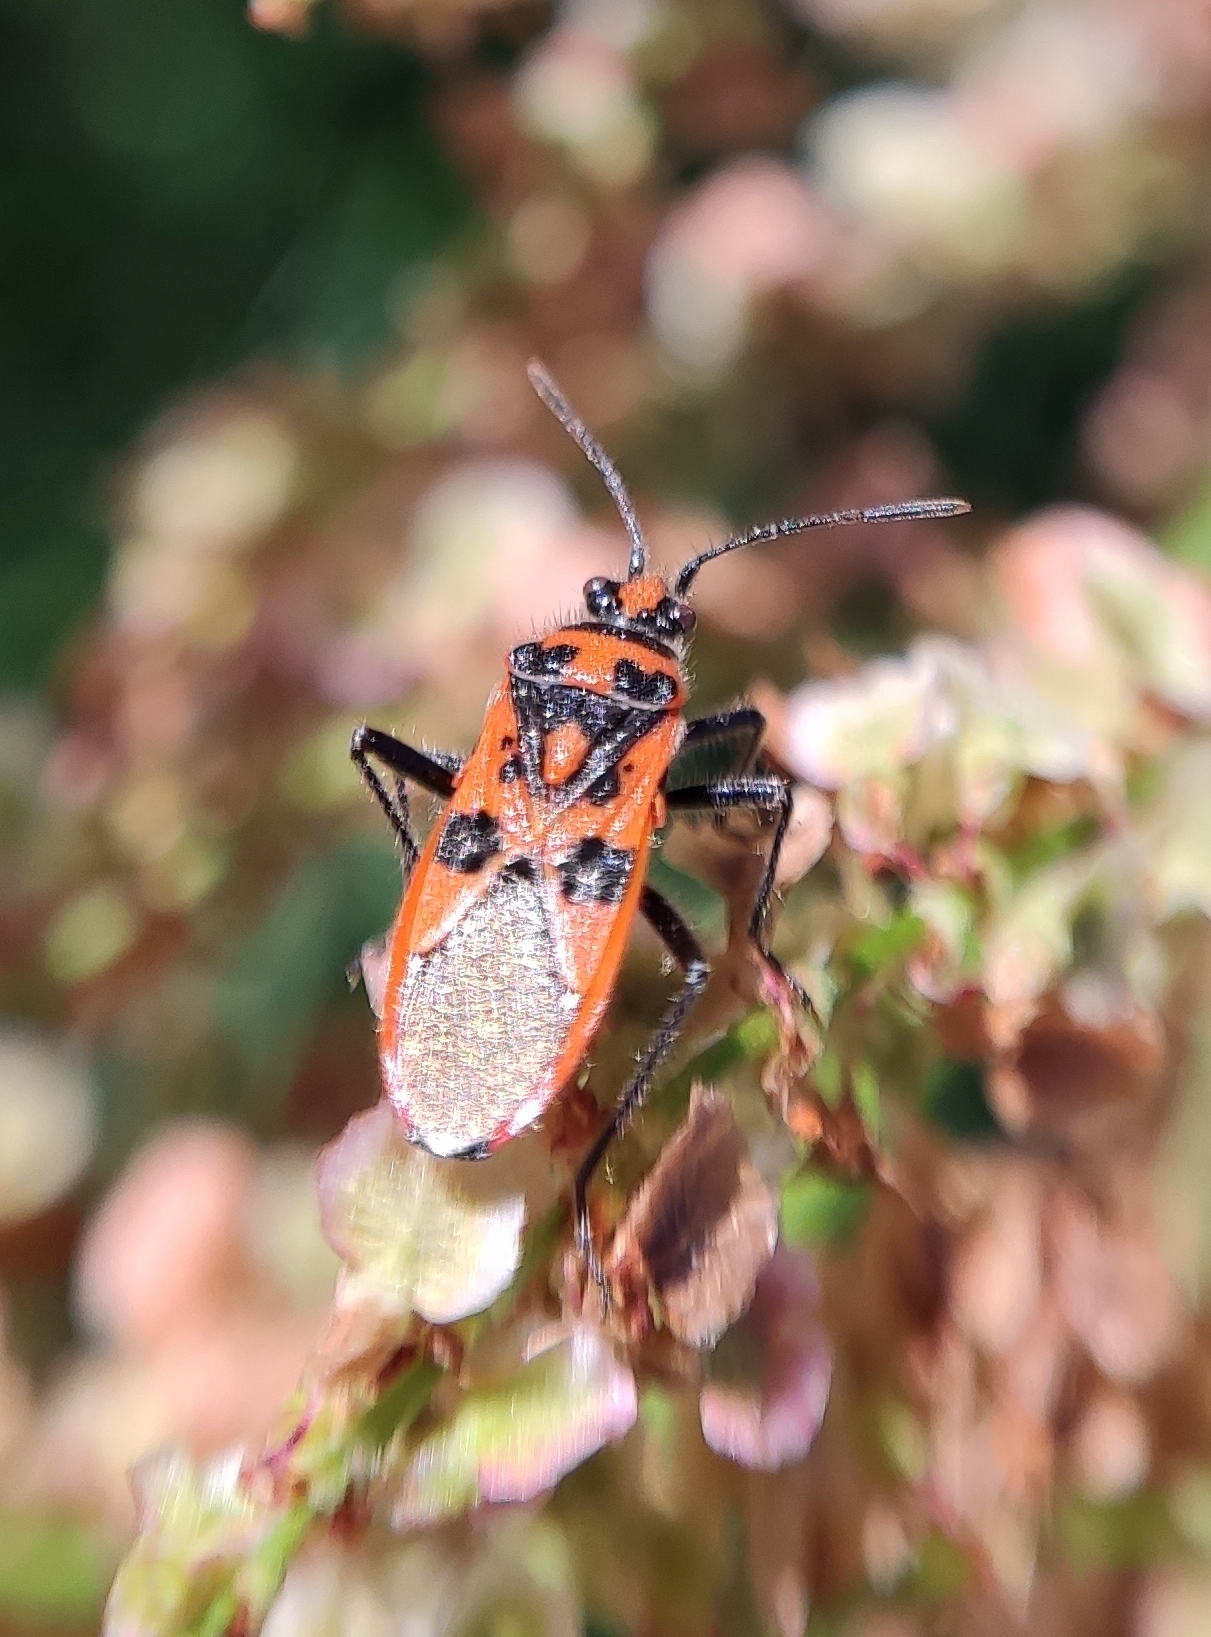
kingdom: Animalia
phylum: Arthropoda
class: Insecta
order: Hemiptera
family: Rhopalidae
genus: Corizus
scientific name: Corizus hyoscyami
